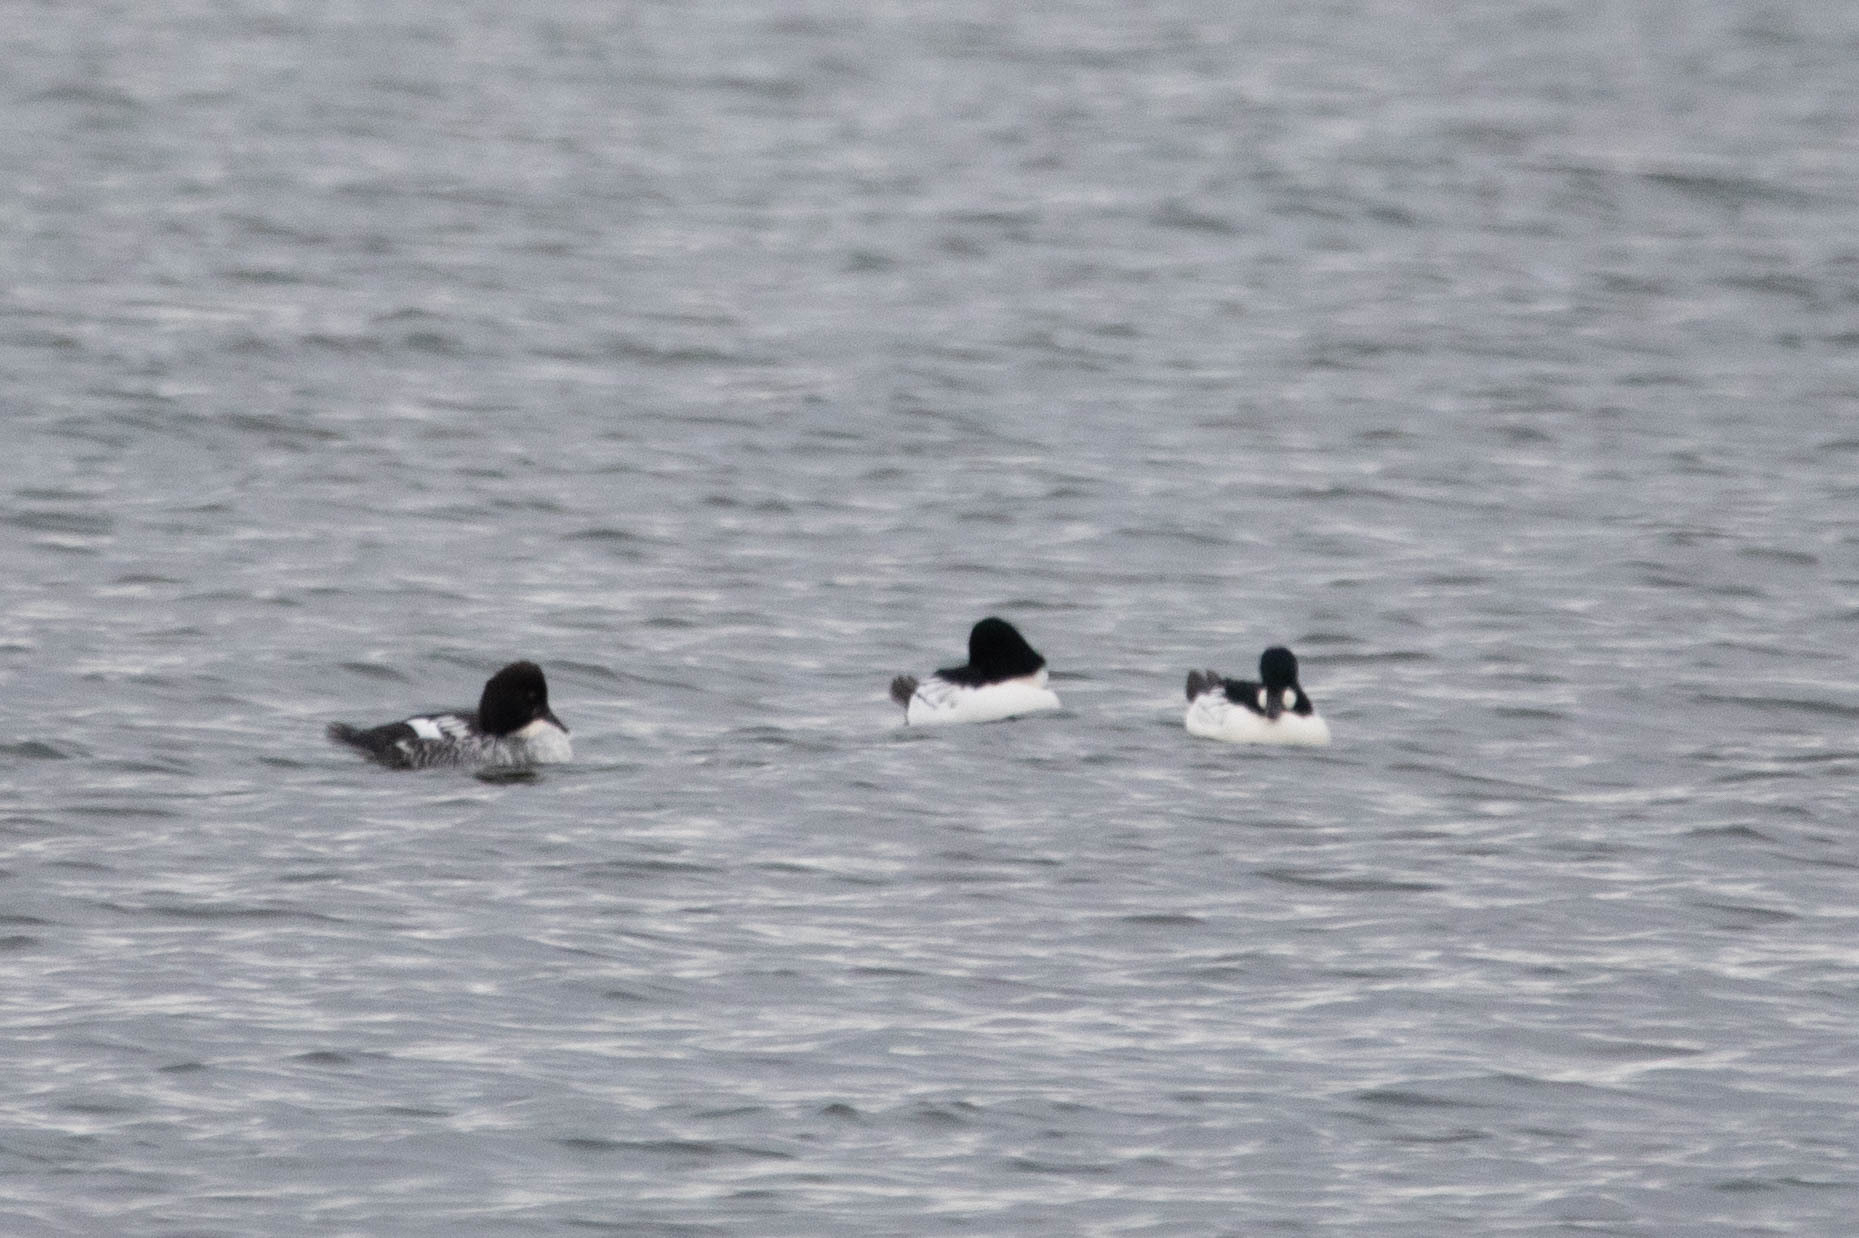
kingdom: Animalia
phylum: Chordata
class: Aves
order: Anseriformes
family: Anatidae
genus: Bucephala
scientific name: Bucephala clangula
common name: Common goldeneye
